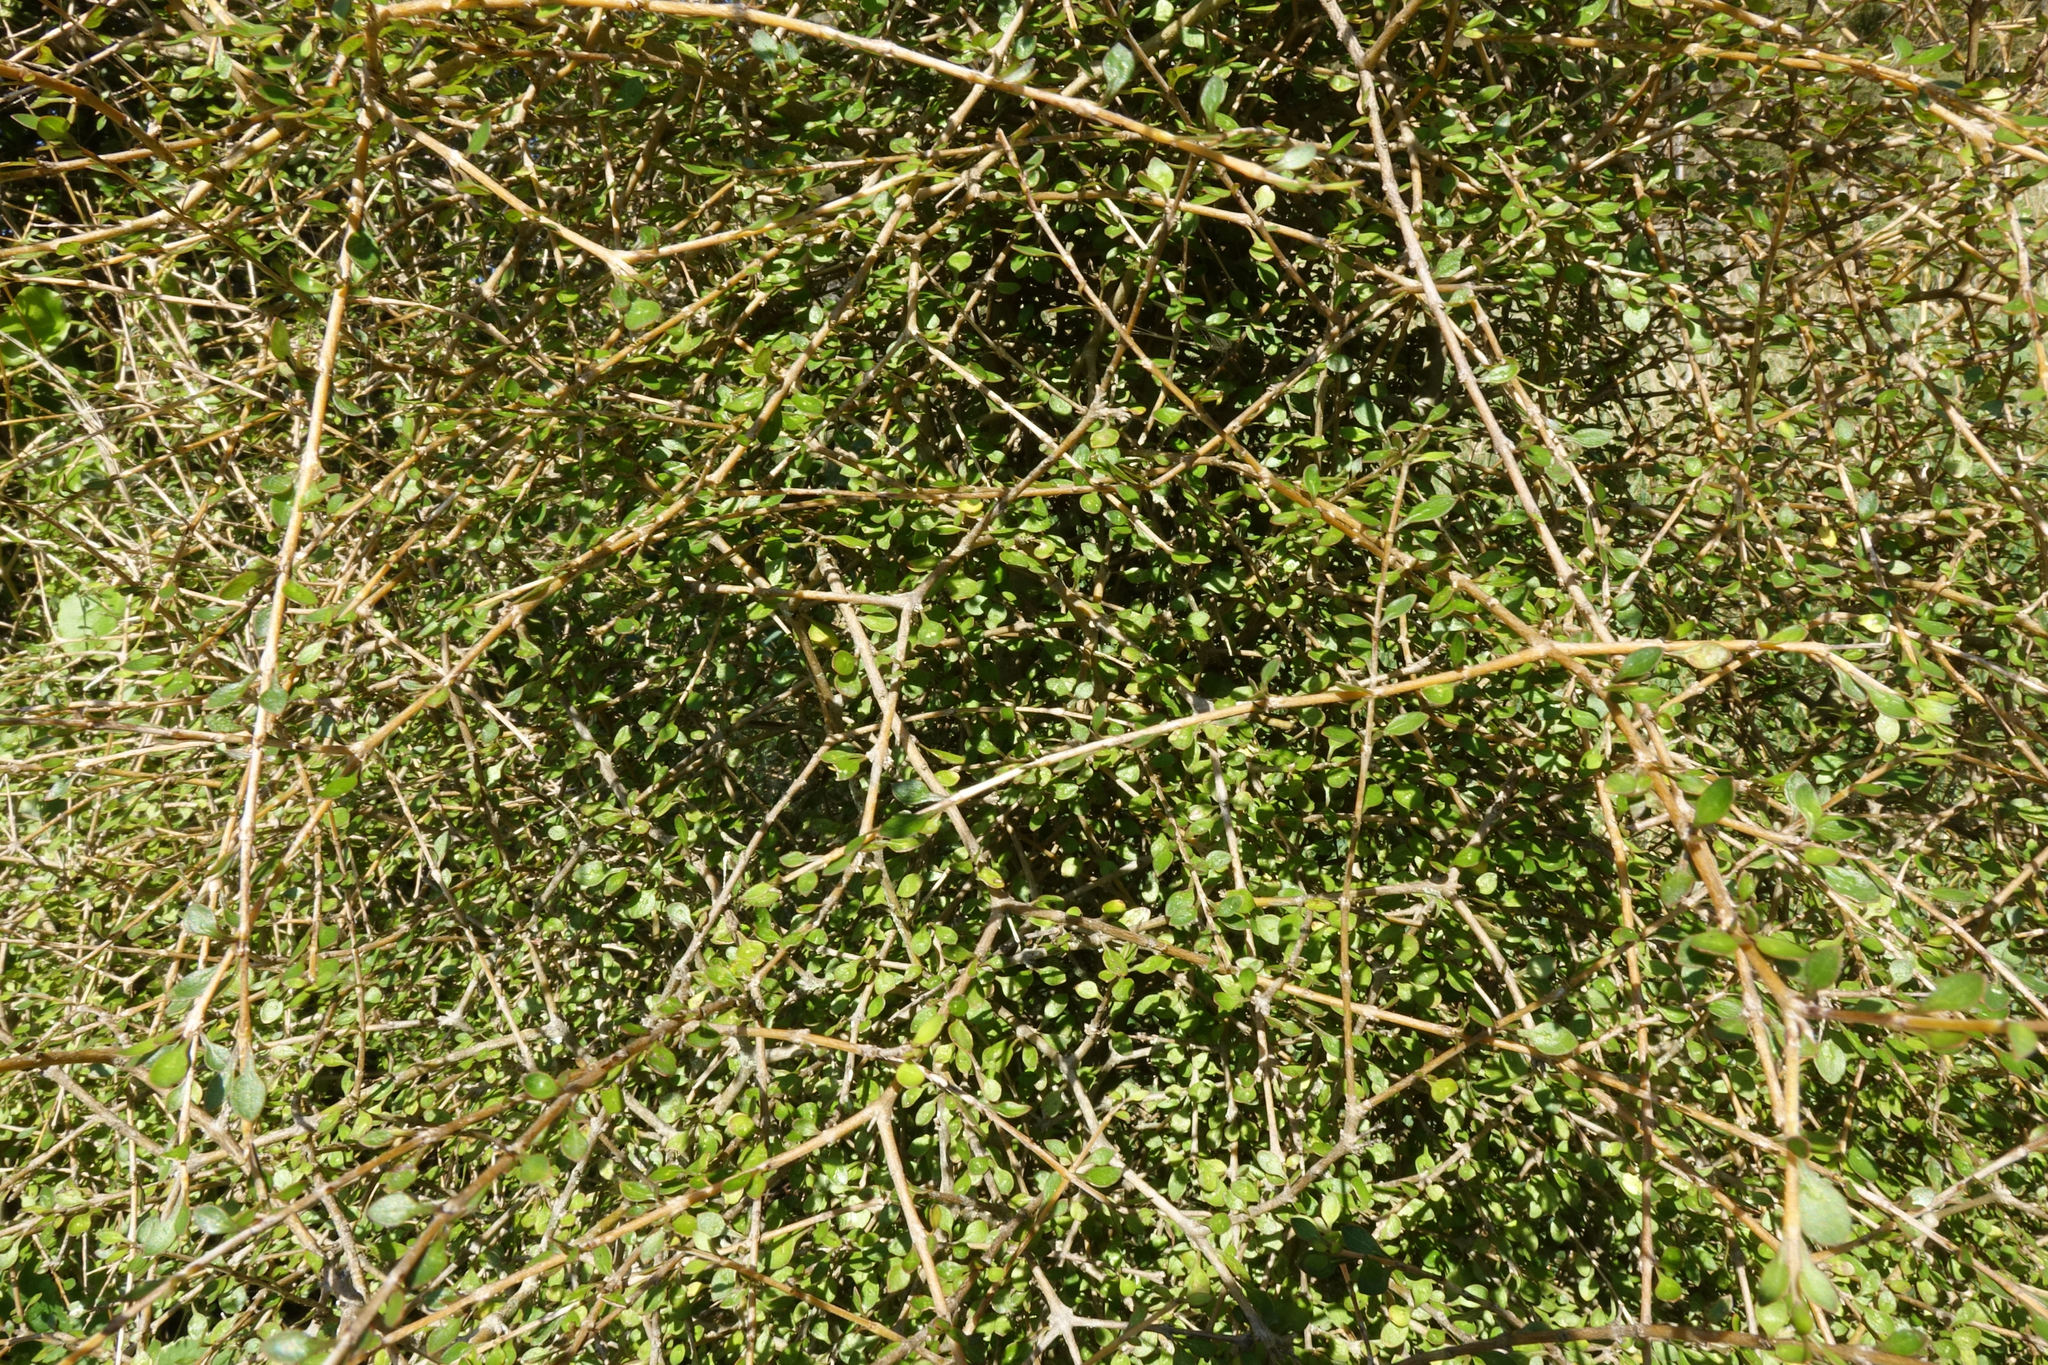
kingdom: Plantae
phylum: Tracheophyta
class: Magnoliopsida
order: Gentianales
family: Rubiaceae
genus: Coprosma
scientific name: Coprosma virescens
